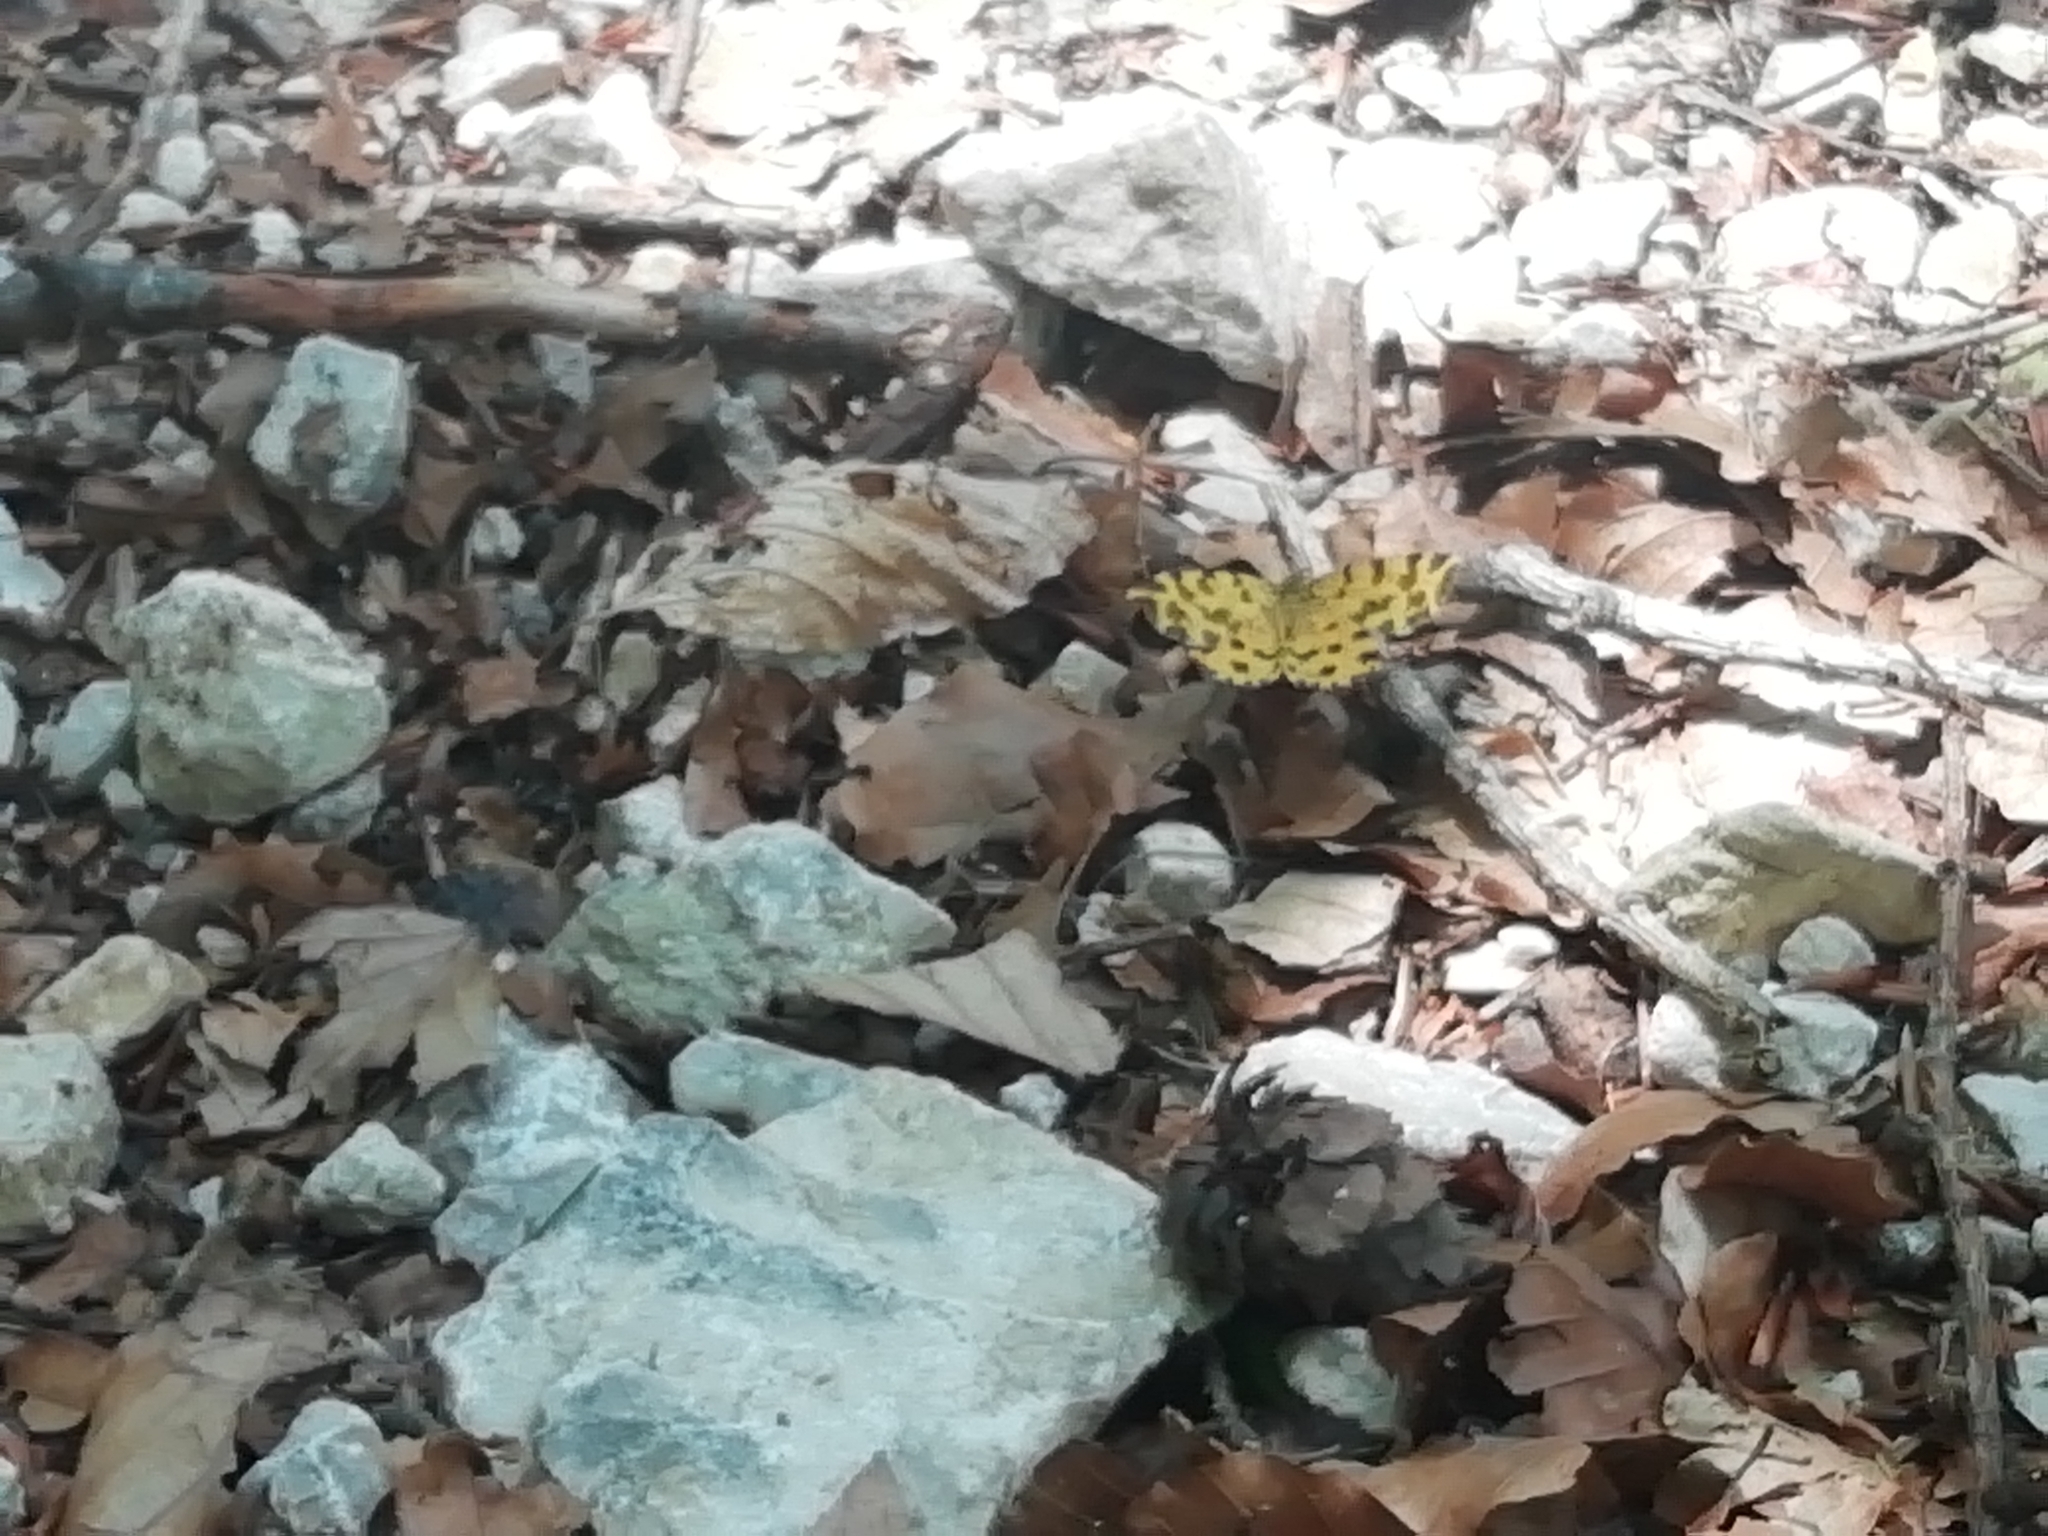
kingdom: Animalia
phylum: Arthropoda
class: Insecta
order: Lepidoptera
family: Geometridae
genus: Pseudopanthera
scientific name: Pseudopanthera macularia
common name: Speckled yellow
